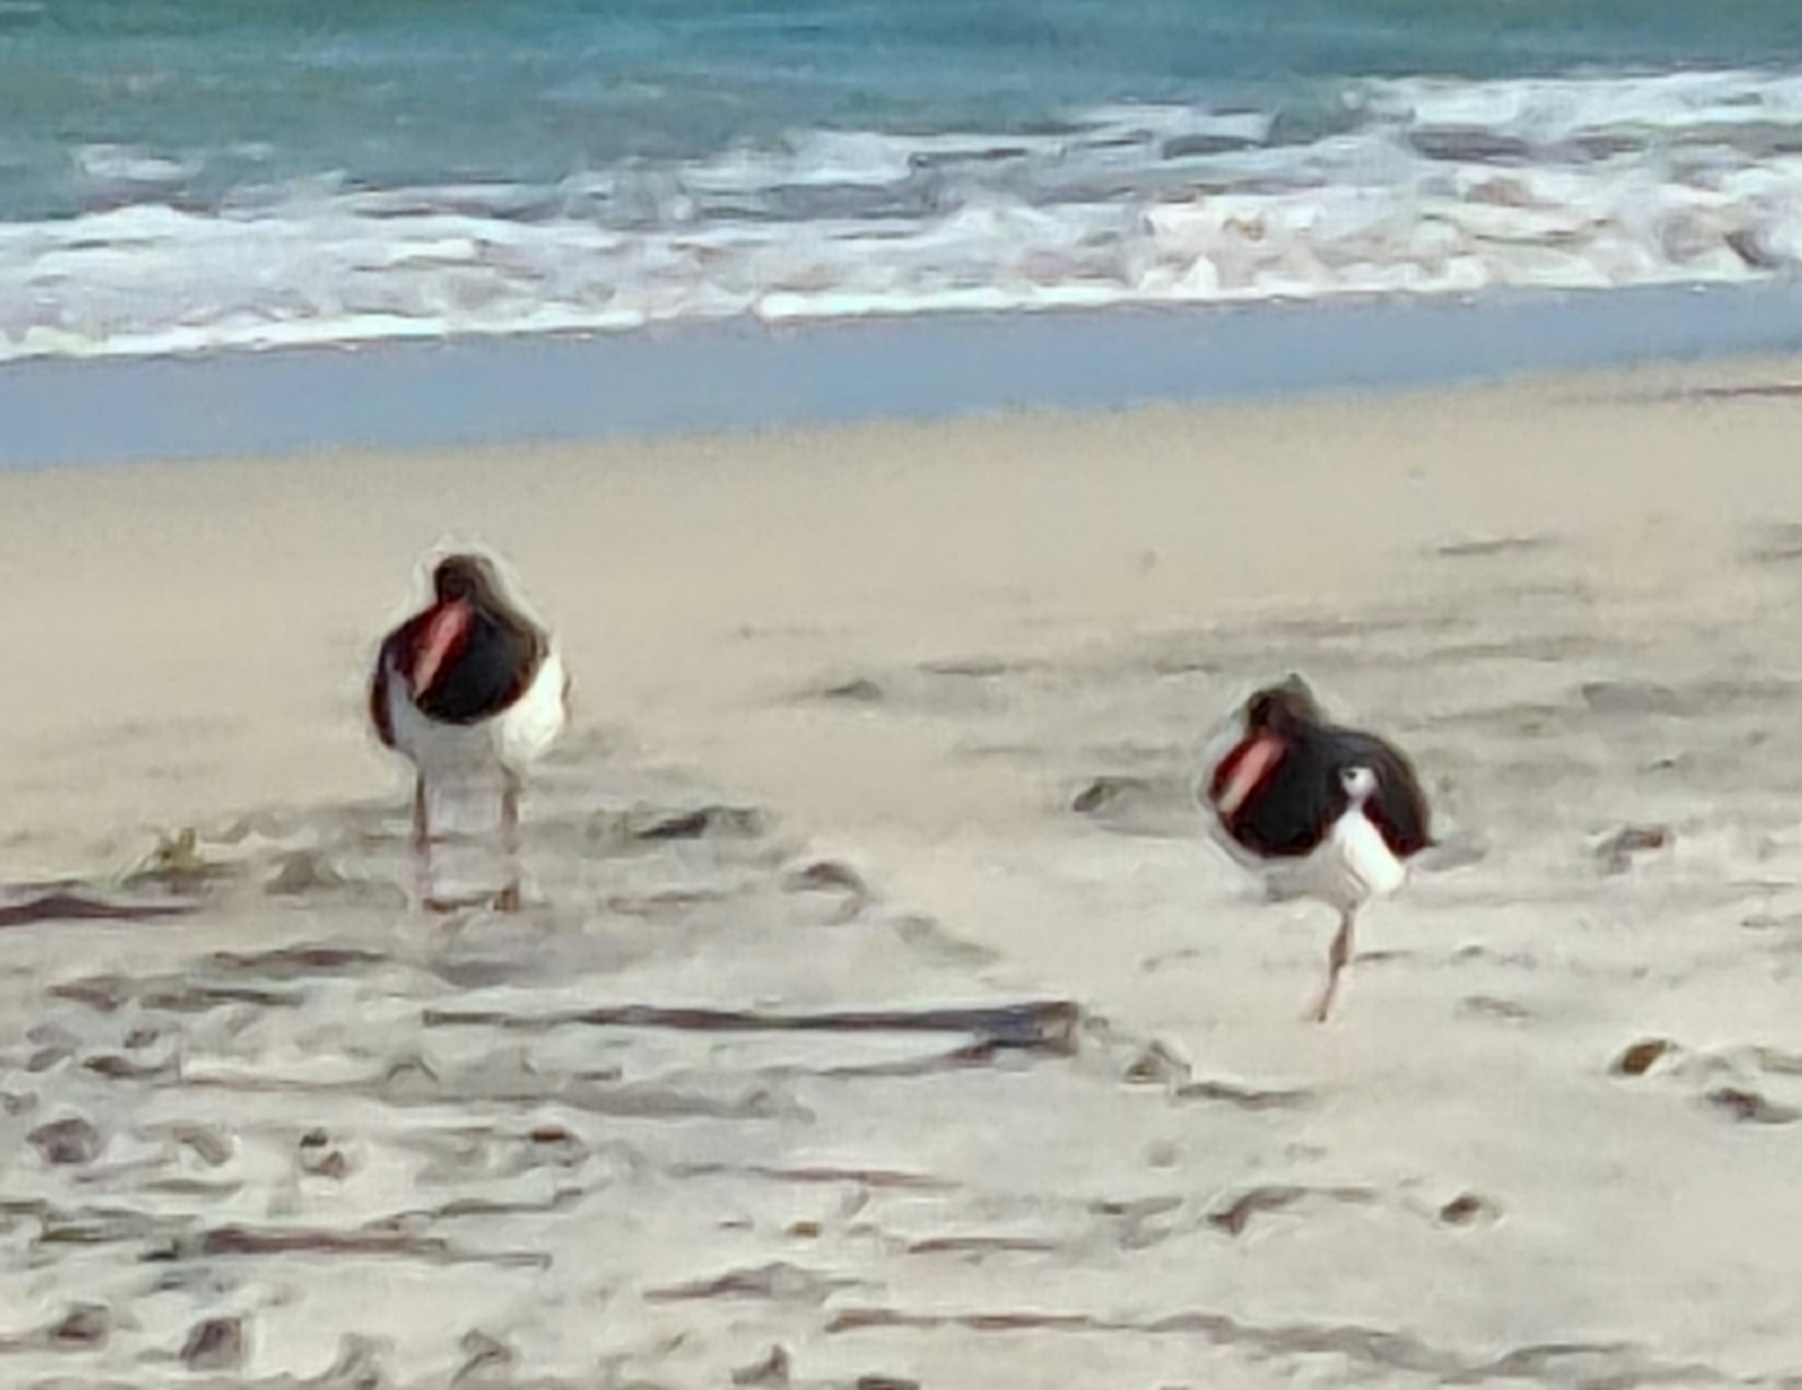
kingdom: Animalia
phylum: Chordata
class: Aves
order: Charadriiformes
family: Haematopodidae
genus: Haematopus
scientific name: Haematopus longirostris
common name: Pied oystercatcher
